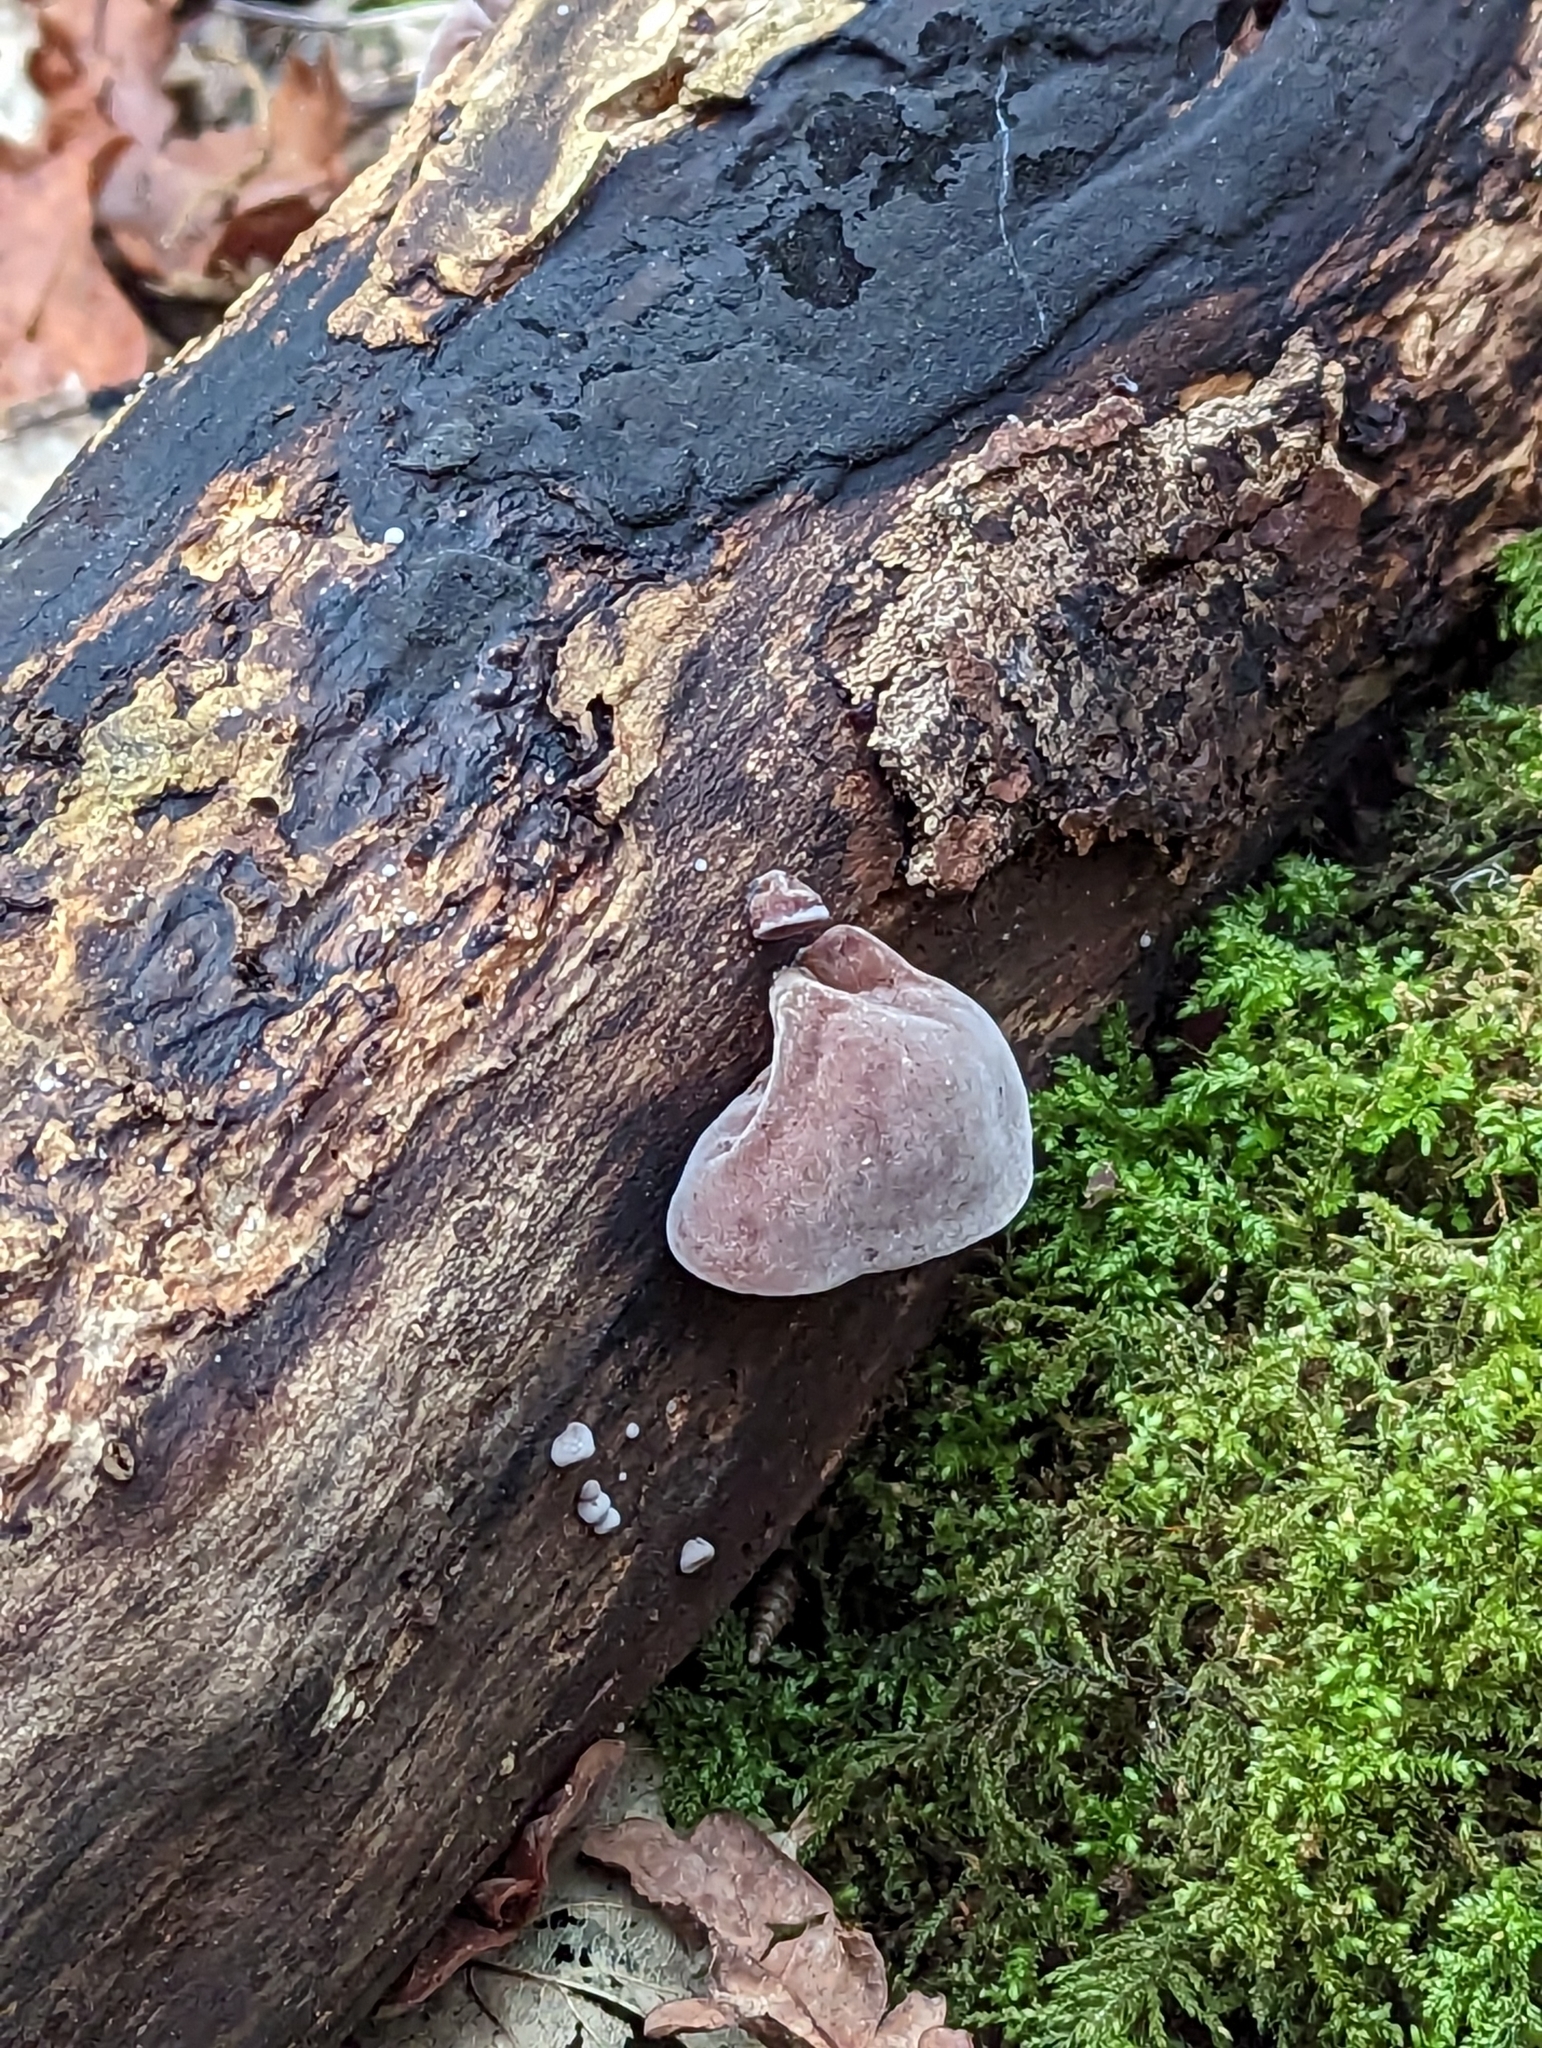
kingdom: Fungi
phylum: Basidiomycota
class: Agaricomycetes
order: Auriculariales
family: Auriculariaceae
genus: Auricularia
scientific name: Auricularia auricula-judae
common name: Jelly ear
